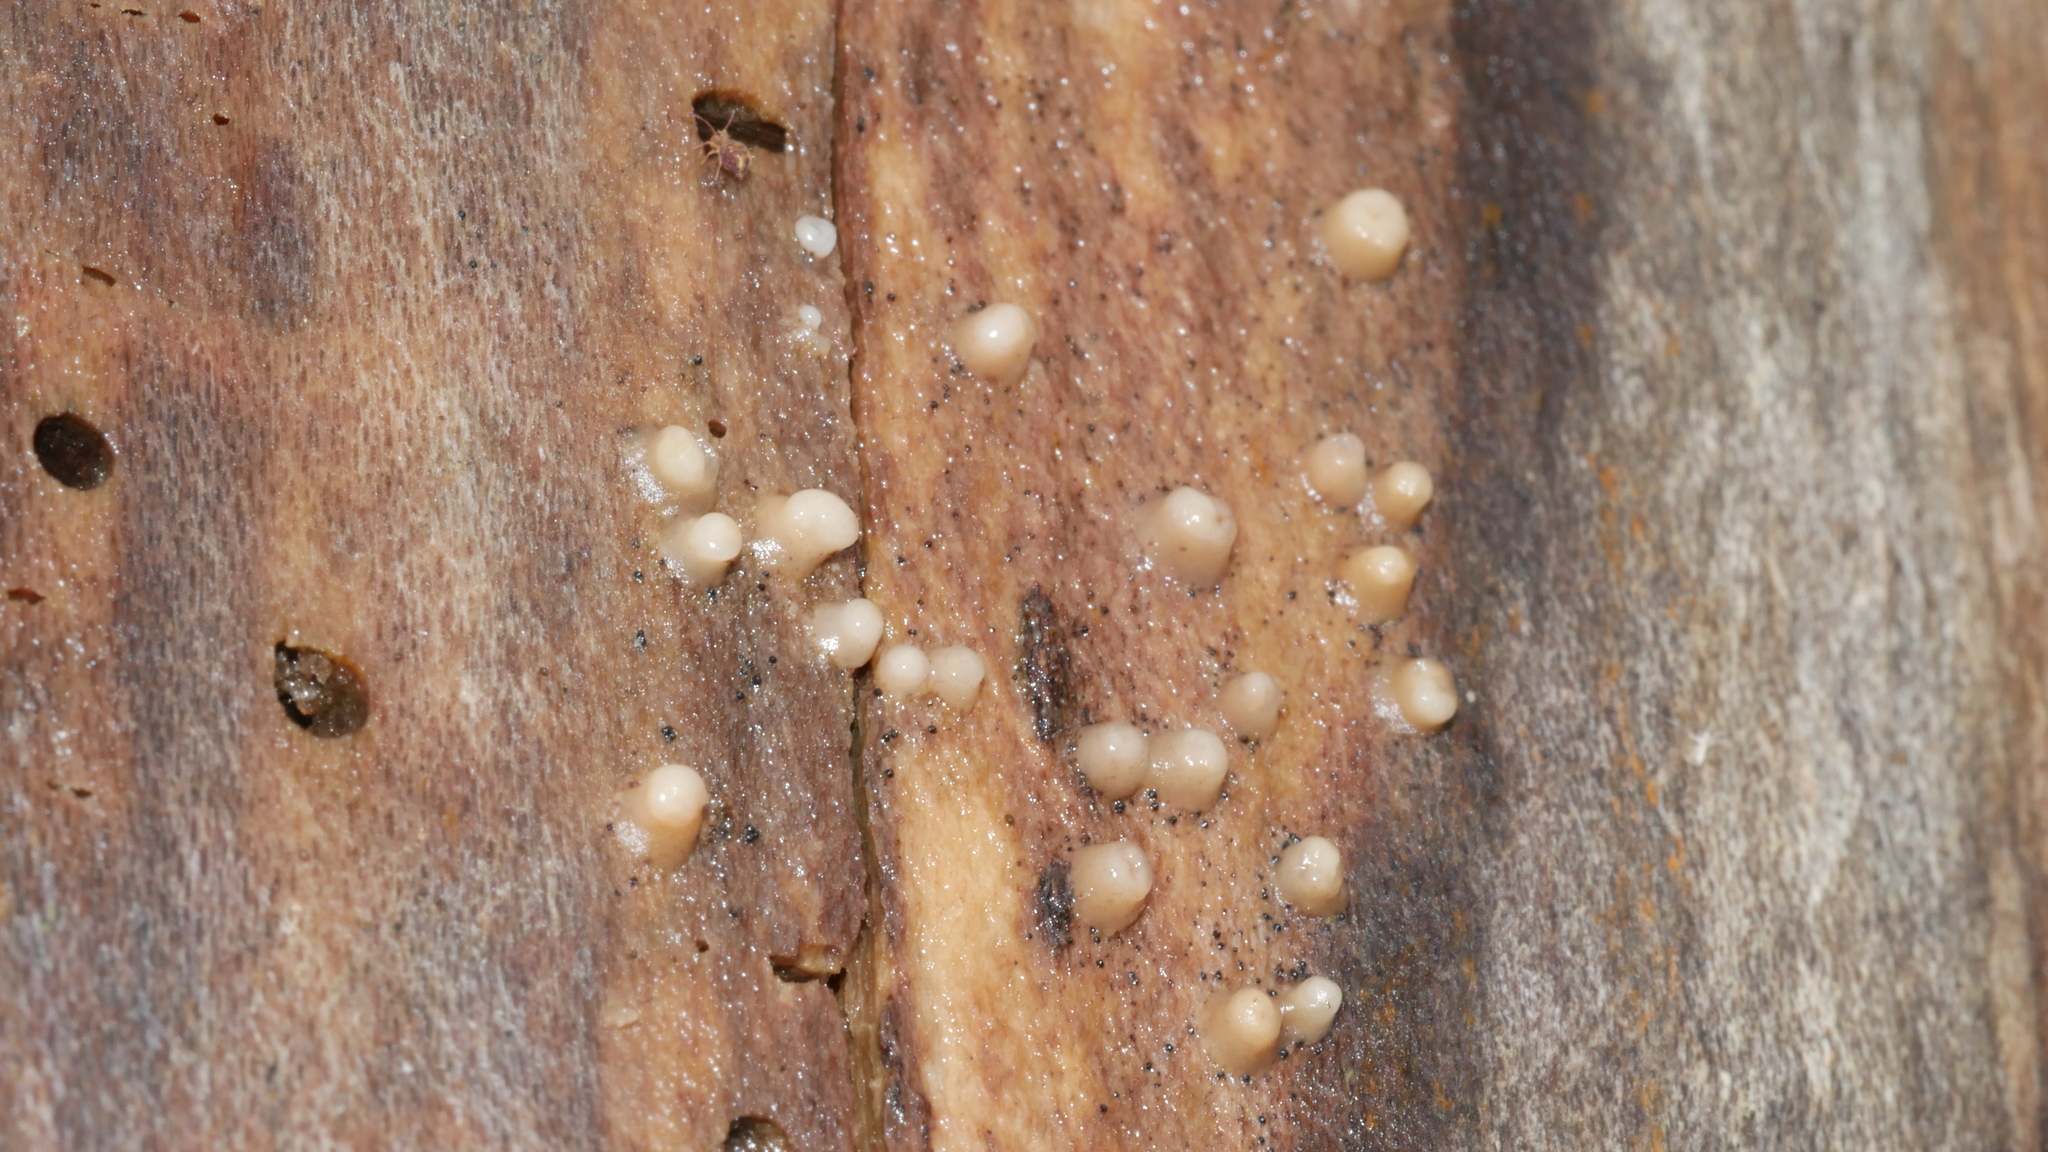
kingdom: Fungi
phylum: Basidiomycota
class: Atractiellomycetes
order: Atractiellales
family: Phleogenaceae
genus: Helicogloea
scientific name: Helicogloea compressa
